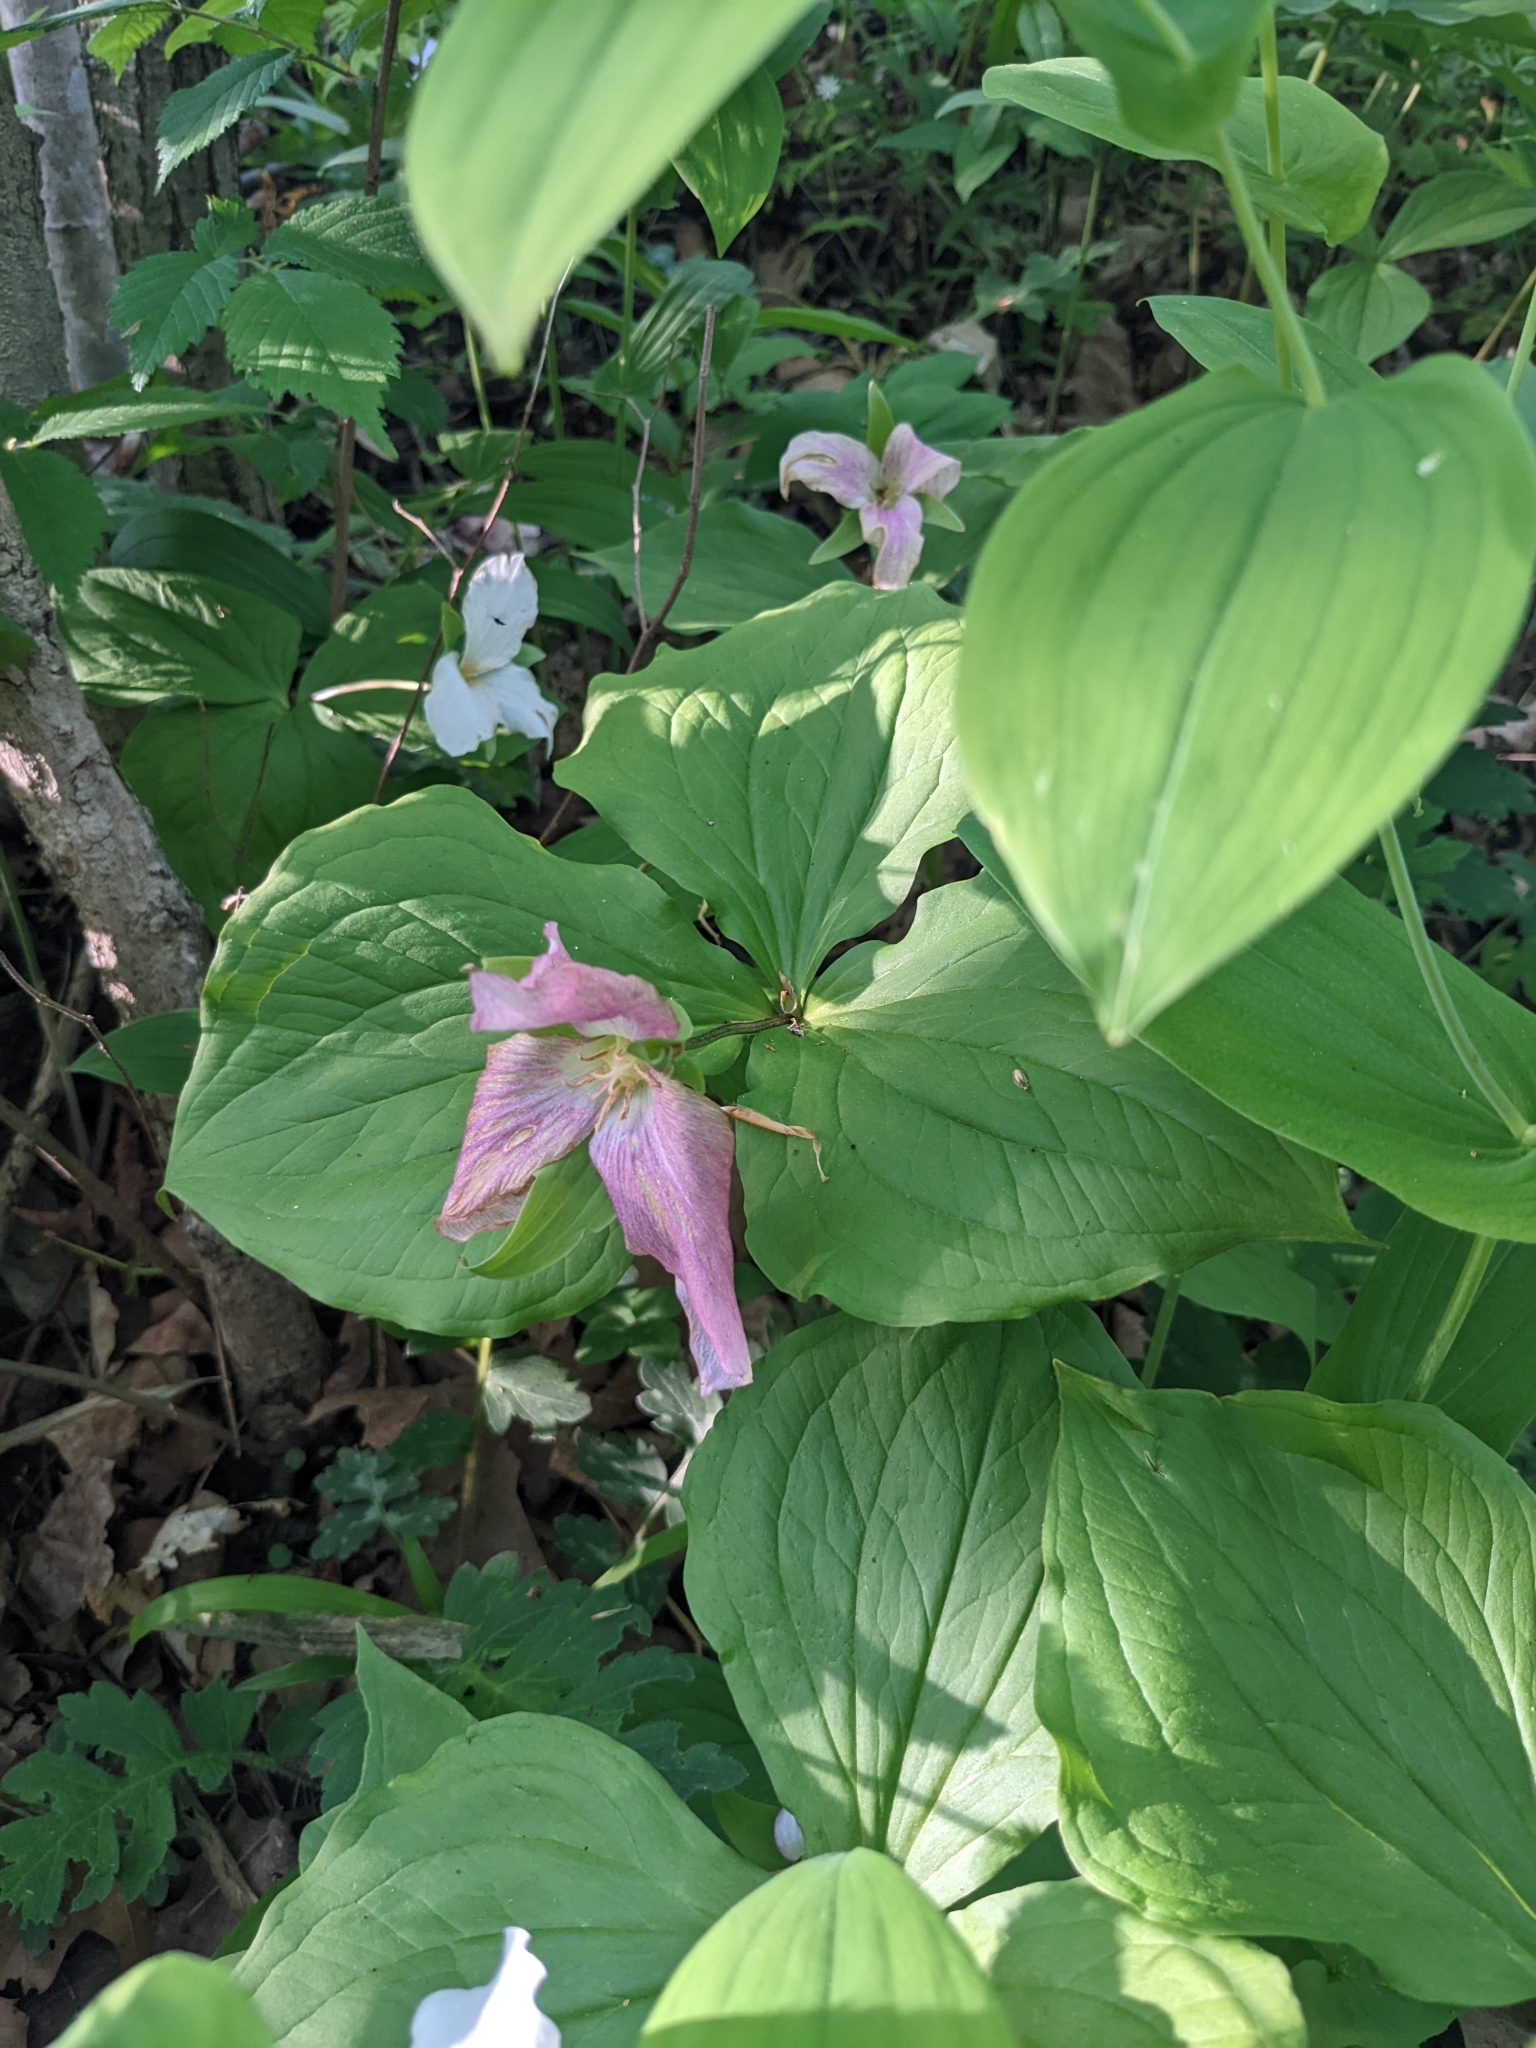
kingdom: Plantae
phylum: Tracheophyta
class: Liliopsida
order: Liliales
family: Melanthiaceae
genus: Trillium
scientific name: Trillium grandiflorum
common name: Great white trillium
